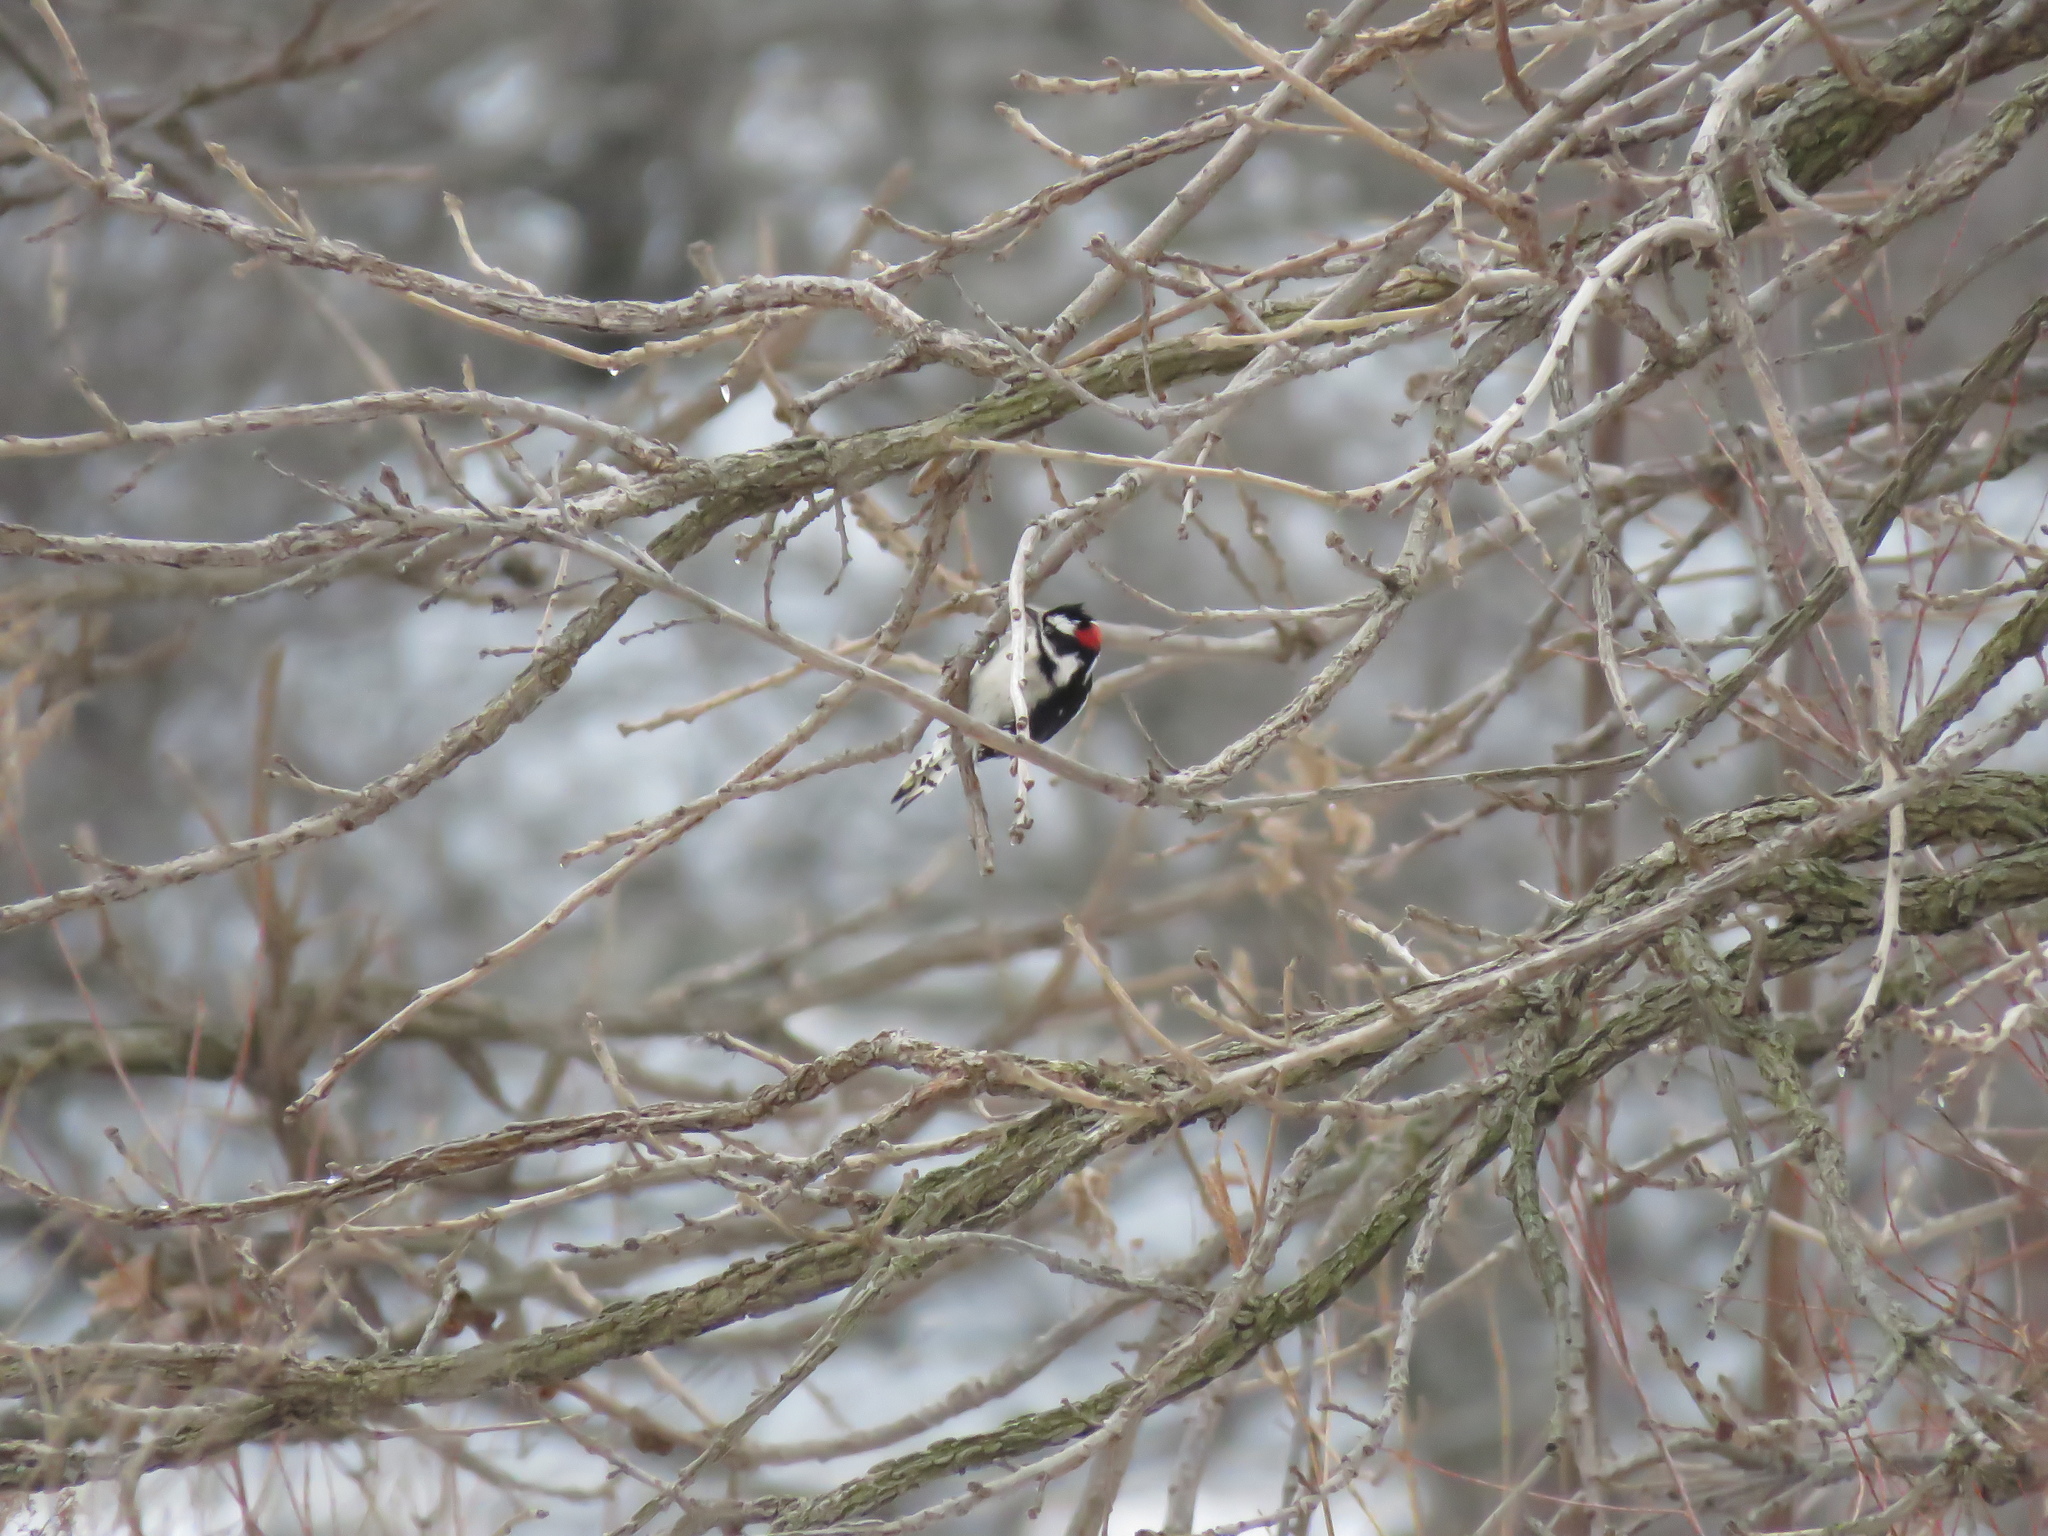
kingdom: Animalia
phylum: Chordata
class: Aves
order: Piciformes
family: Picidae
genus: Dryobates
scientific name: Dryobates pubescens
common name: Downy woodpecker
